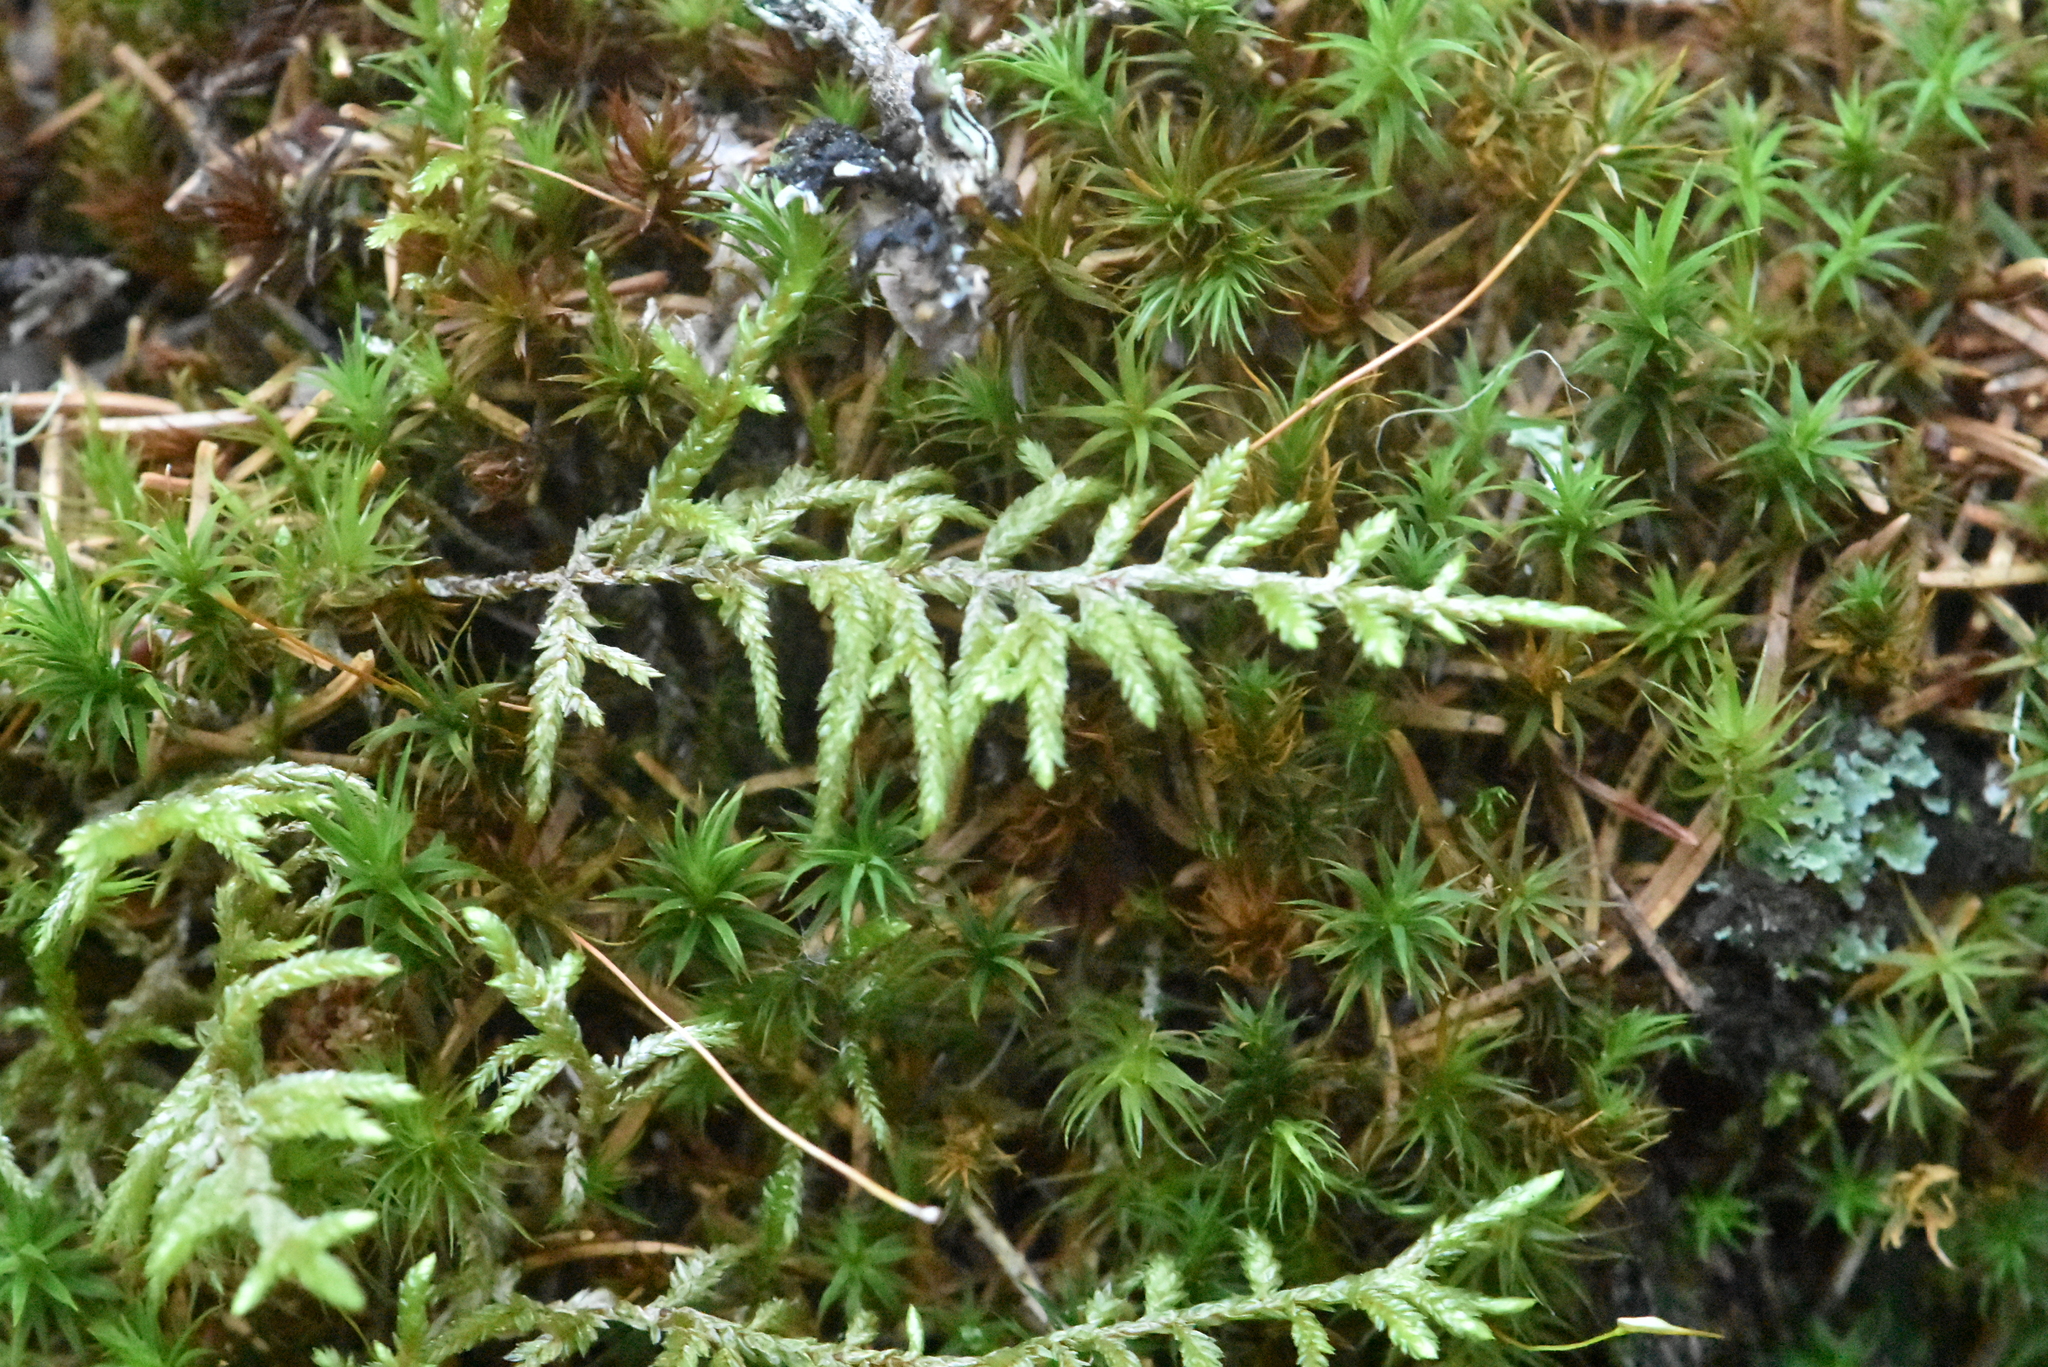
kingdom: Plantae
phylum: Bryophyta
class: Bryopsida
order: Hypnales
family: Hylocomiaceae
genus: Pleurozium
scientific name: Pleurozium schreberi
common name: Red-stemmed feather moss
